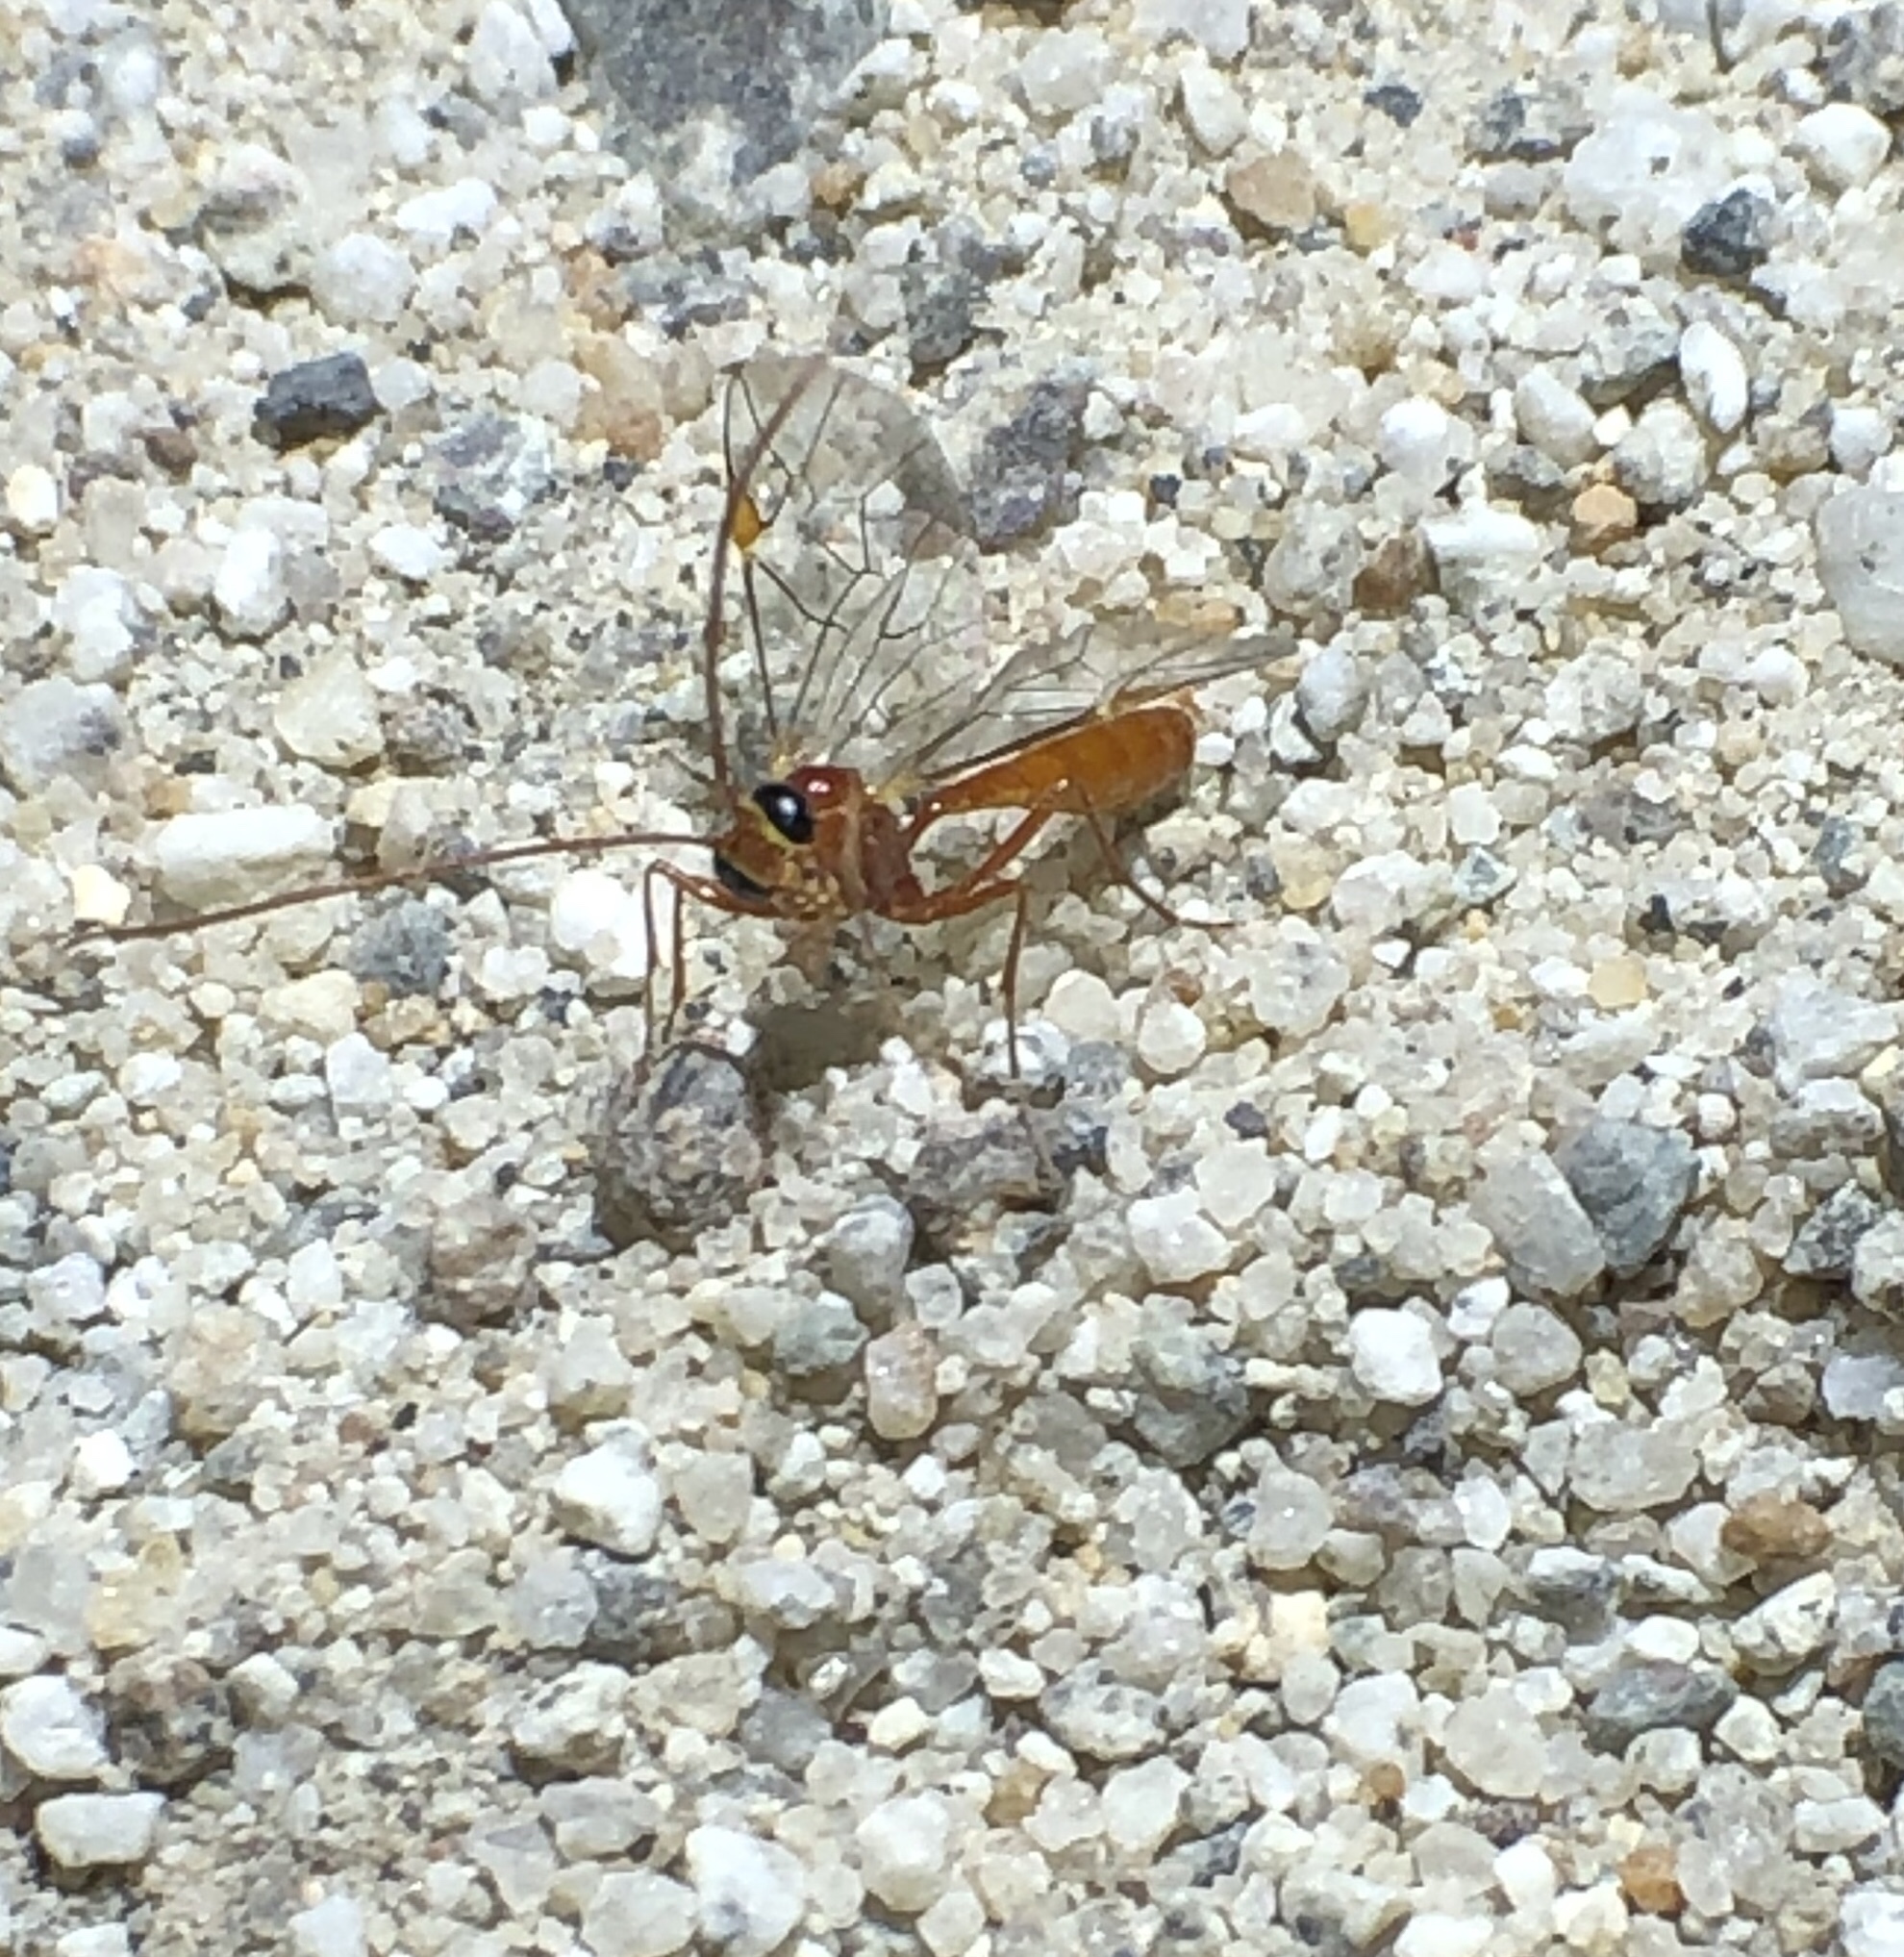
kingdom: Animalia
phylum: Arthropoda
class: Insecta
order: Hymenoptera
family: Ichneumonidae
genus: Eremotylus
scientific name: Eremotylus
